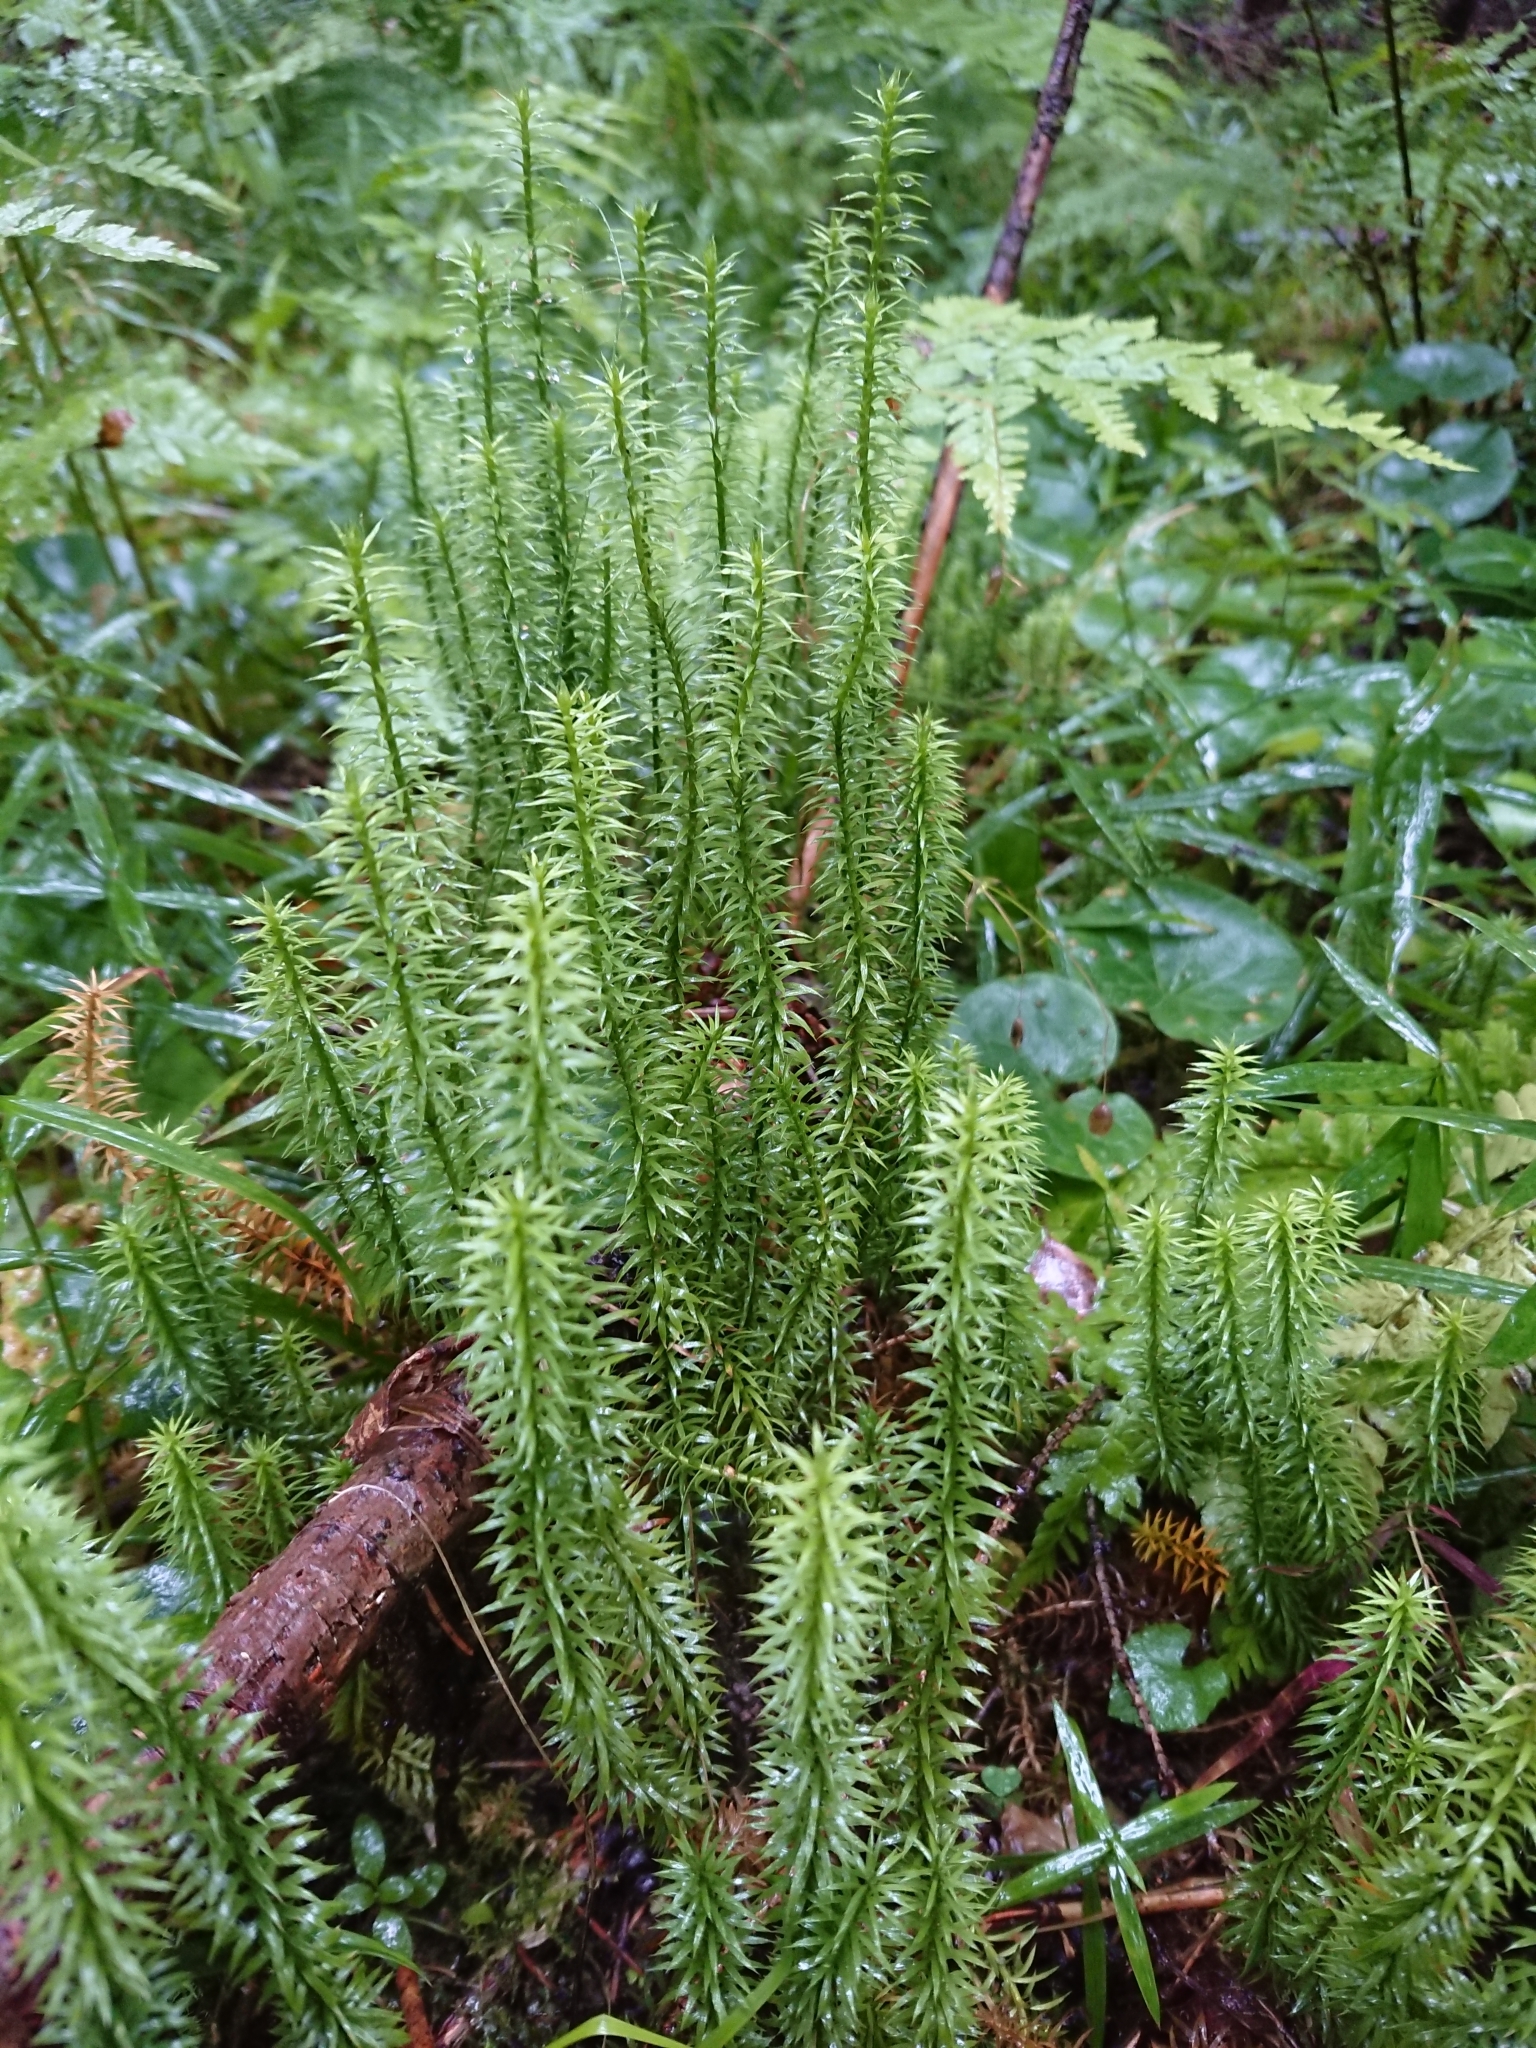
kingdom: Plantae
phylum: Tracheophyta
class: Lycopodiopsida
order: Lycopodiales
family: Lycopodiaceae
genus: Spinulum
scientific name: Spinulum annotinum
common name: Interrupted club-moss
